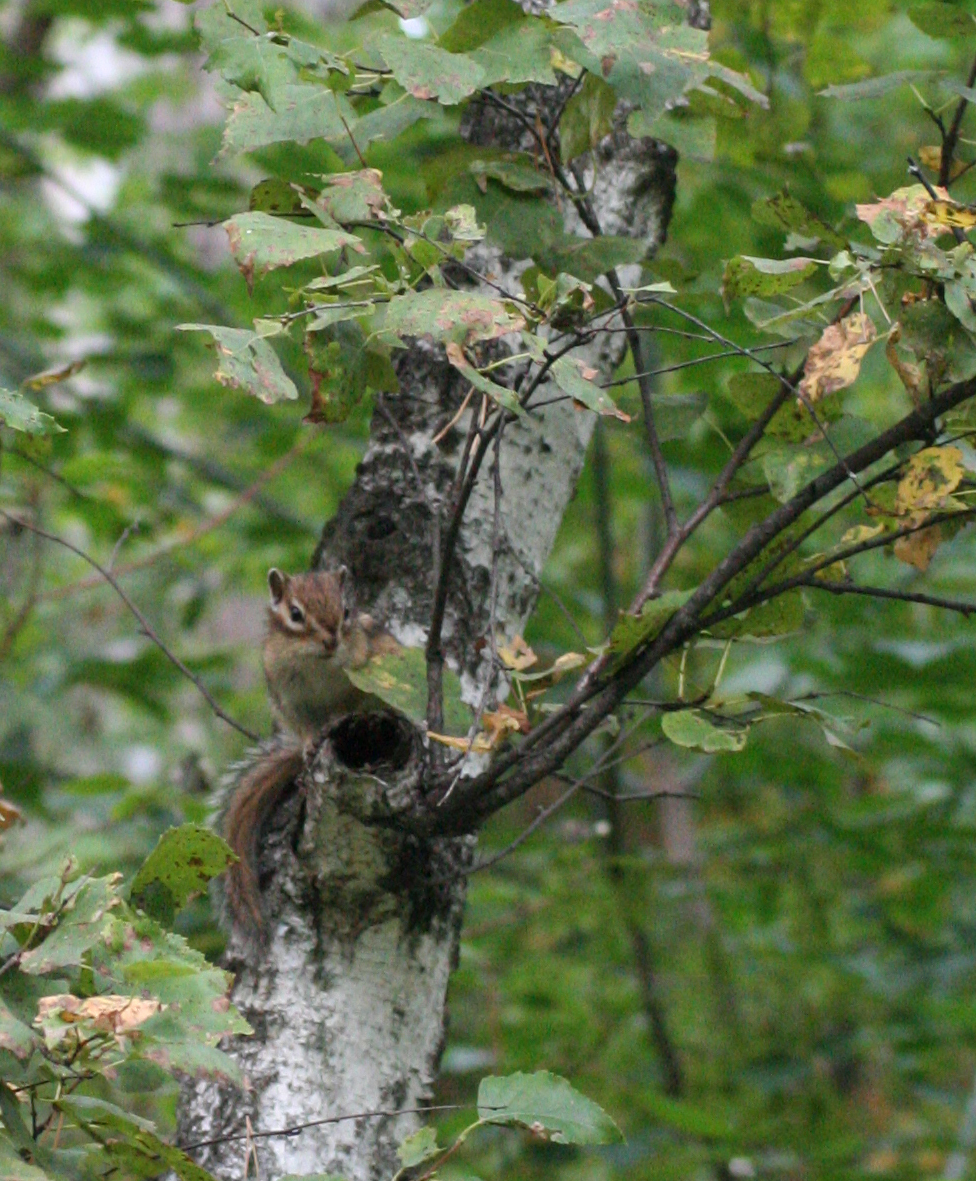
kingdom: Animalia
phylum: Chordata
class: Mammalia
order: Rodentia
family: Sciuridae
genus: Tamias
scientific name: Tamias sibiricus
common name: Siberian chipmunk
